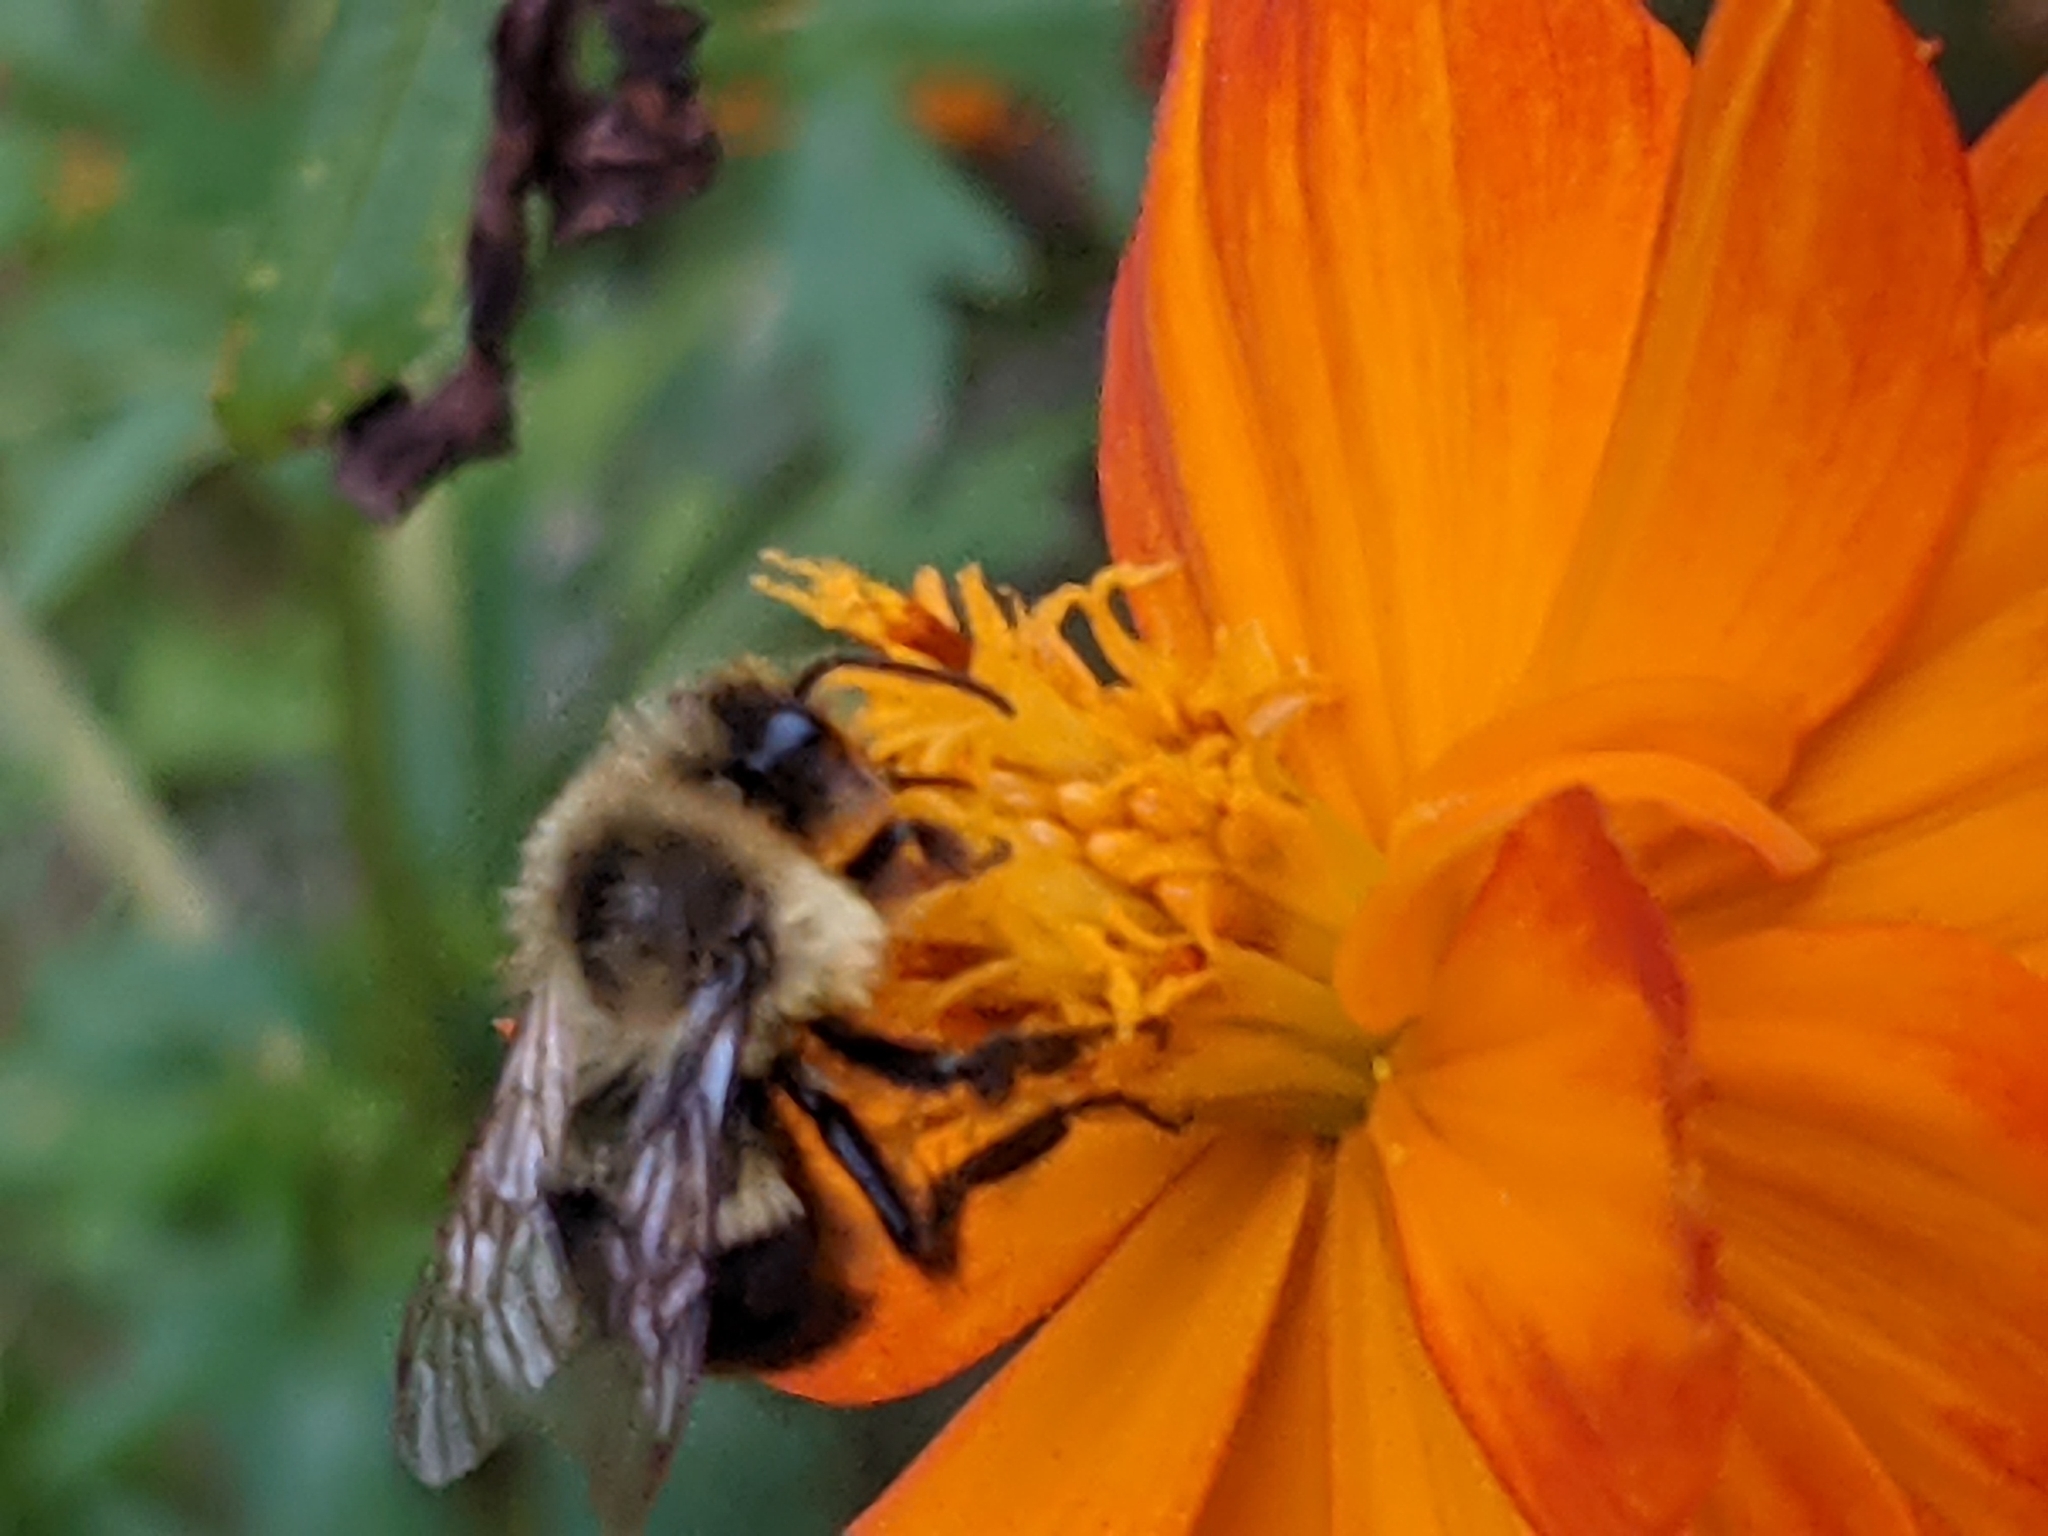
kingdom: Animalia
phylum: Arthropoda
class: Insecta
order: Hymenoptera
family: Apidae
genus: Bombus
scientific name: Bombus impatiens
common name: Common eastern bumble bee
